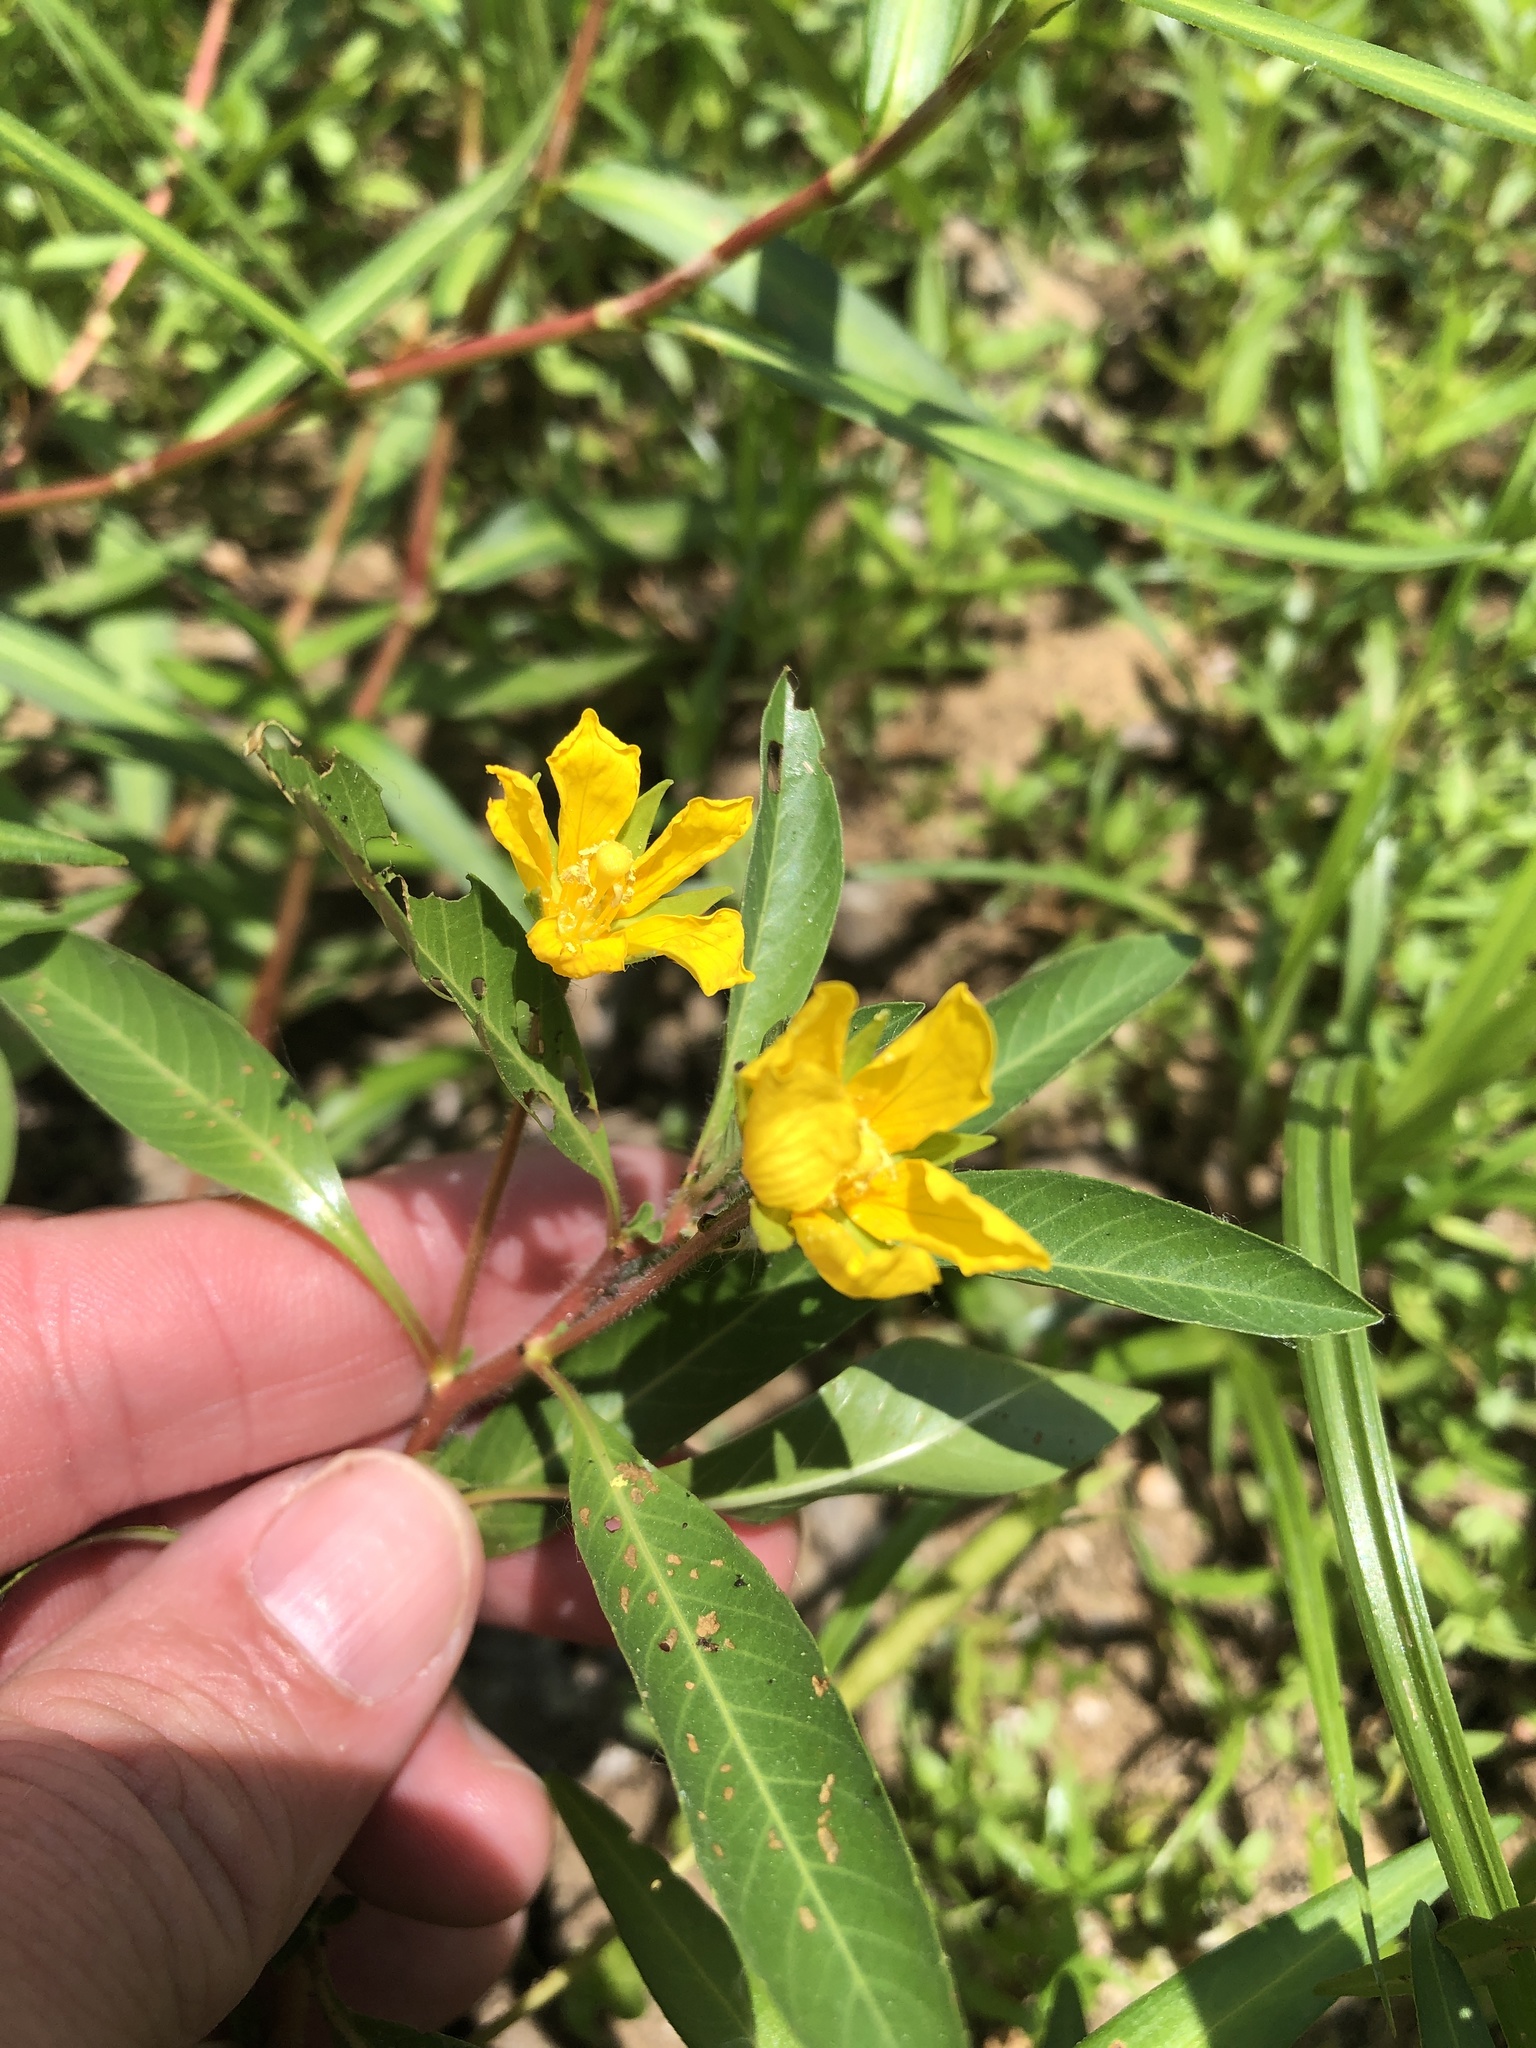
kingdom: Plantae
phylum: Tracheophyta
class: Magnoliopsida
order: Myrtales
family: Onagraceae
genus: Ludwigia
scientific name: Ludwigia peploides
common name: Floating primrose-willow
